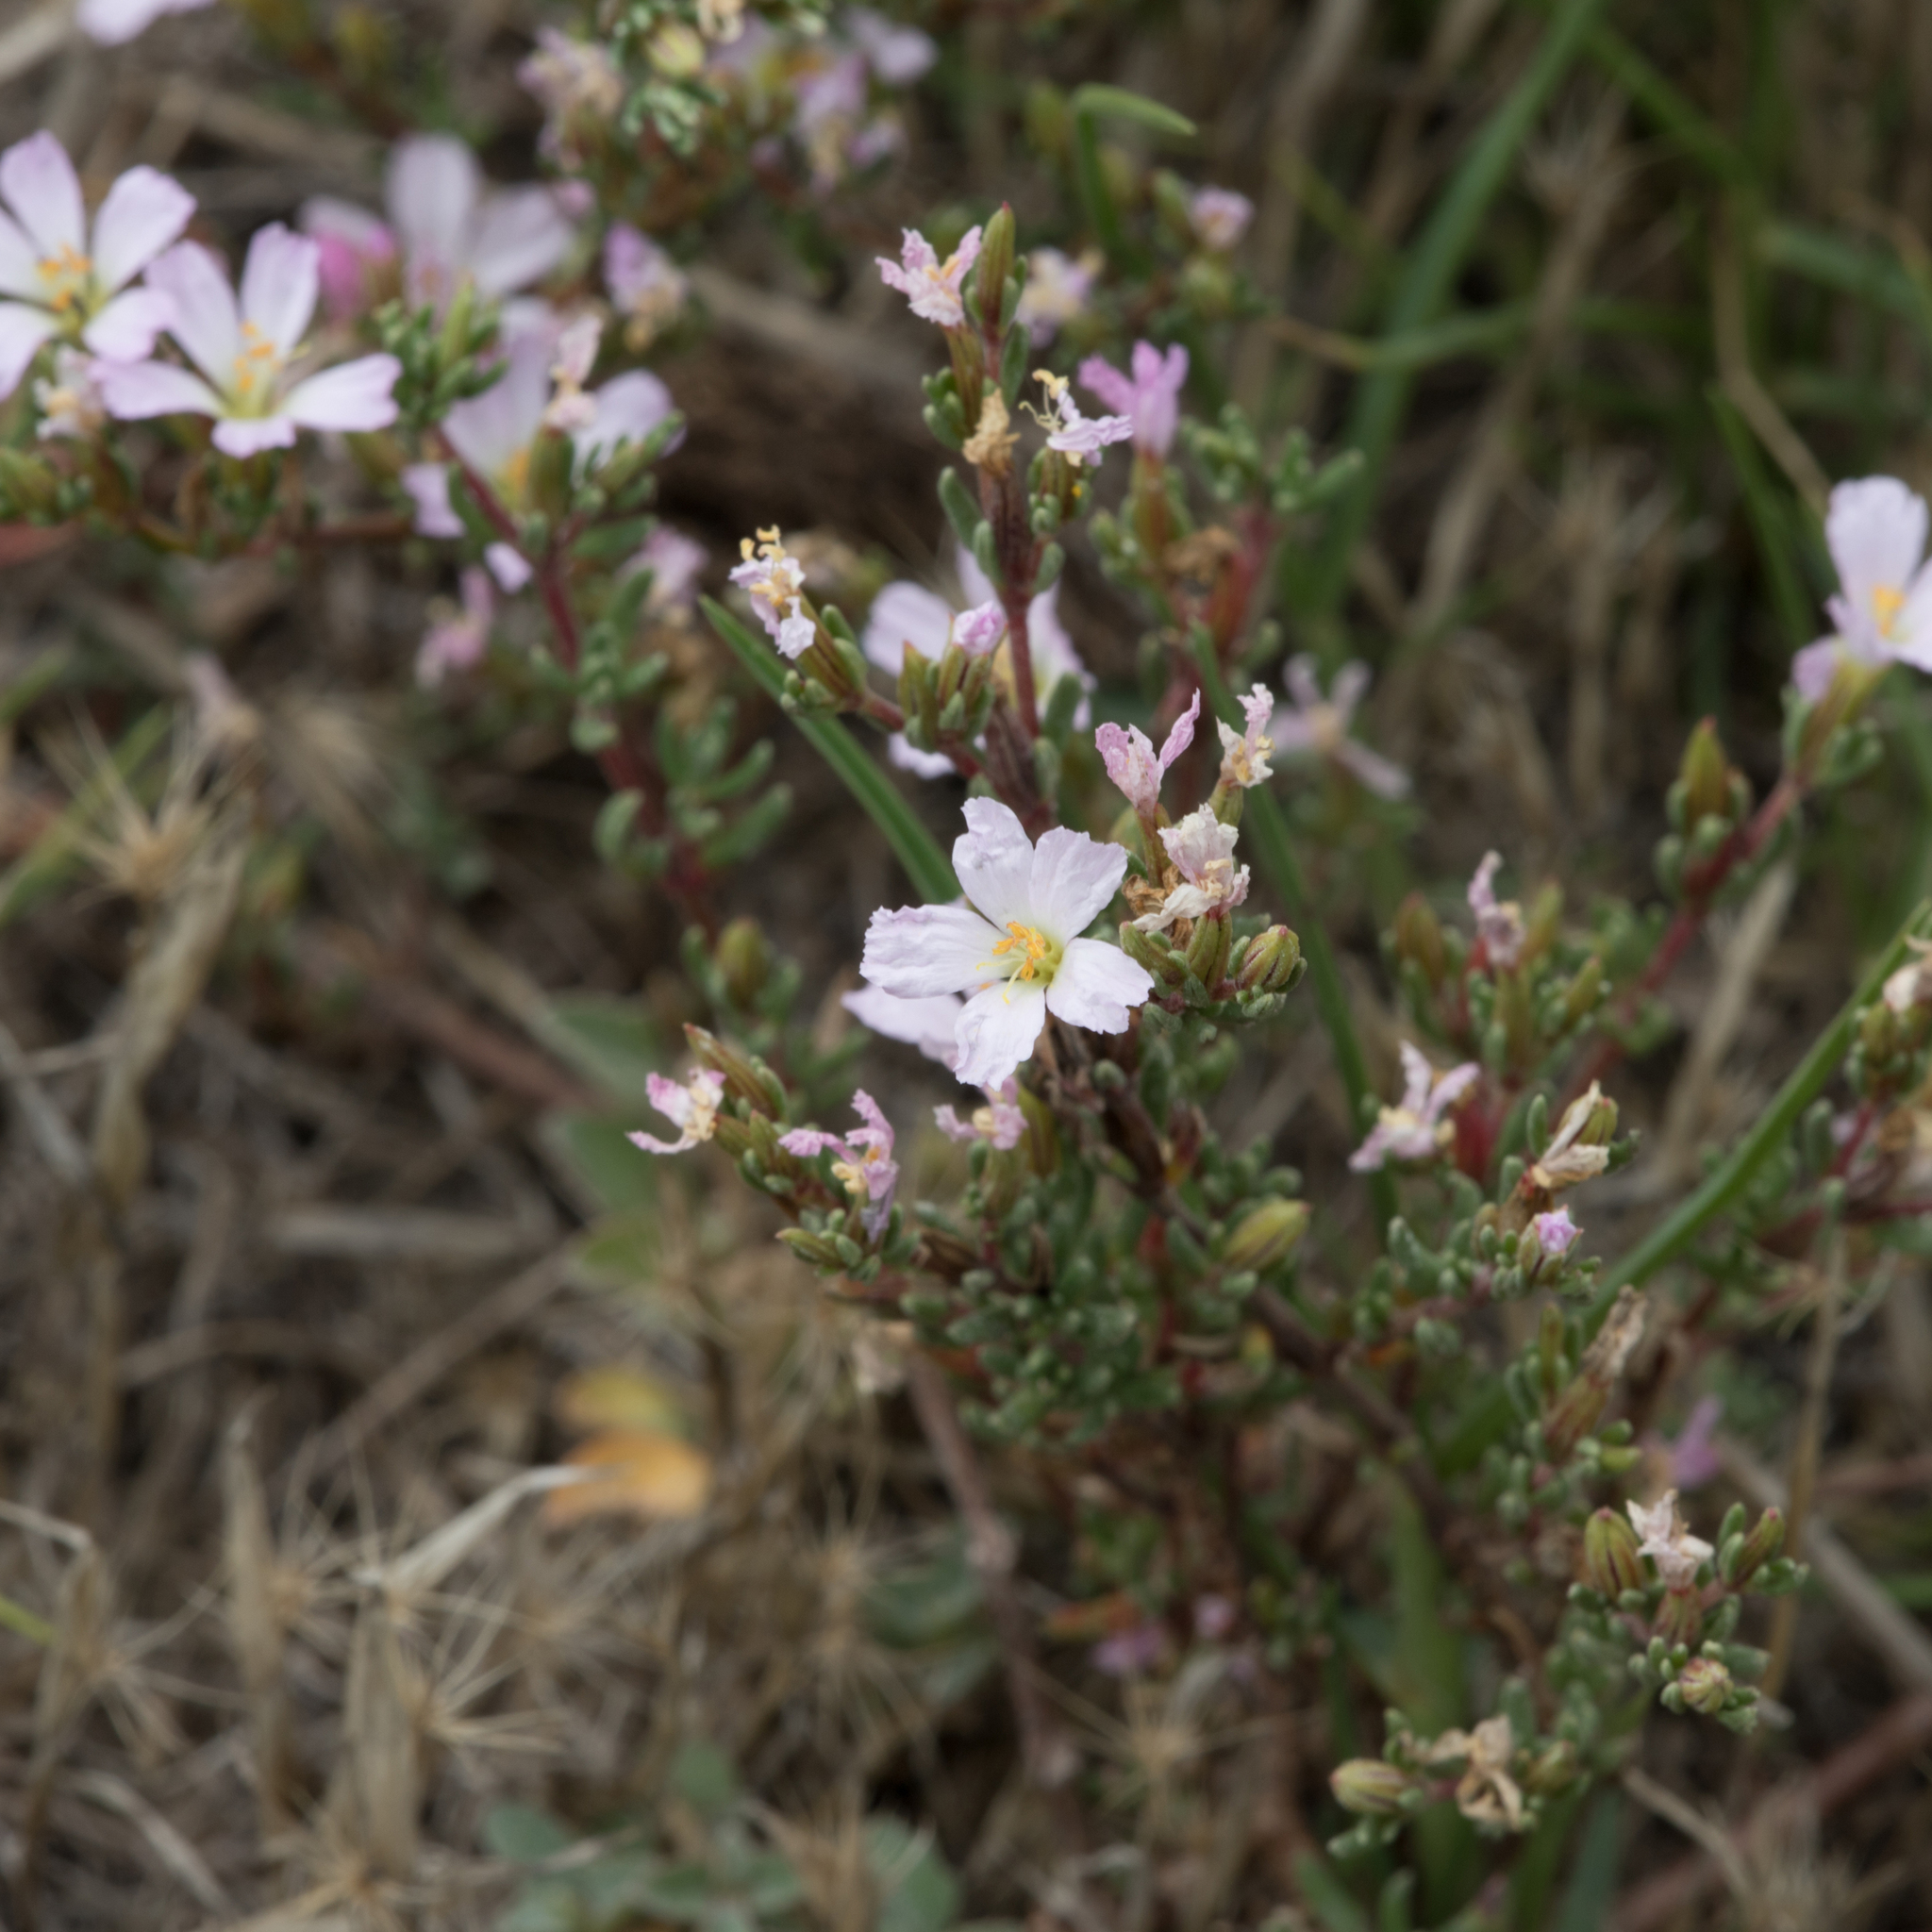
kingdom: Plantae
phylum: Tracheophyta
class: Magnoliopsida
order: Caryophyllales
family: Frankeniaceae
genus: Frankenia
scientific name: Frankenia pauciflora
